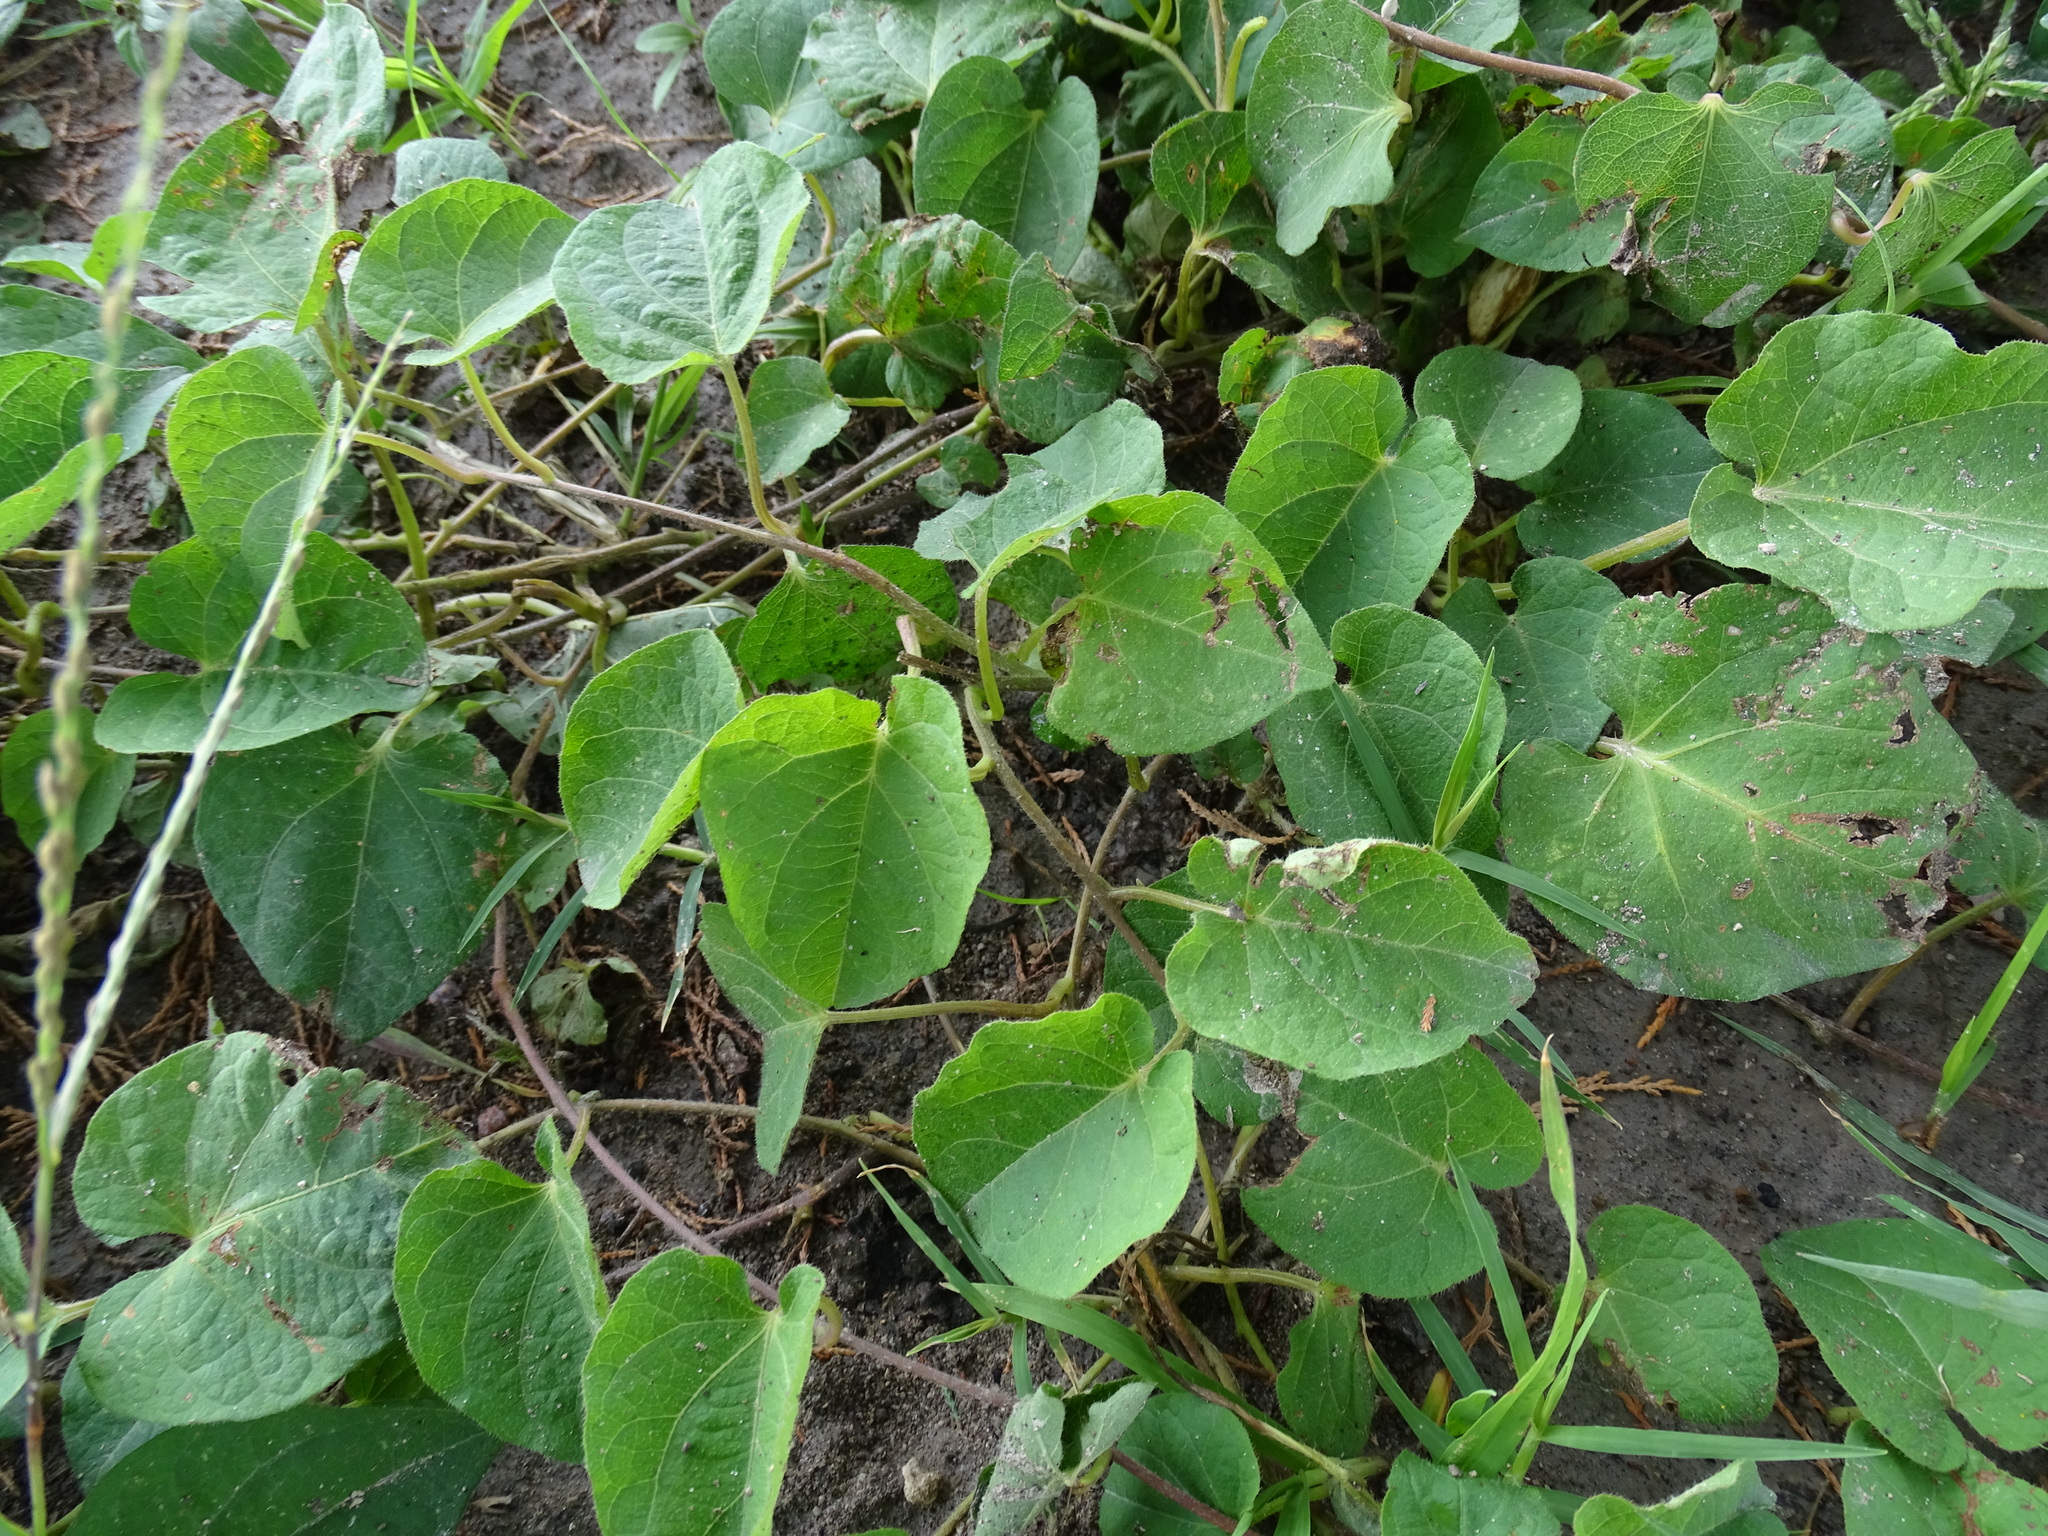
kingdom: Plantae
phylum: Tracheophyta
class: Magnoliopsida
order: Solanales
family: Convolvulaceae
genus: Ipomoea
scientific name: Ipomoea proxima
